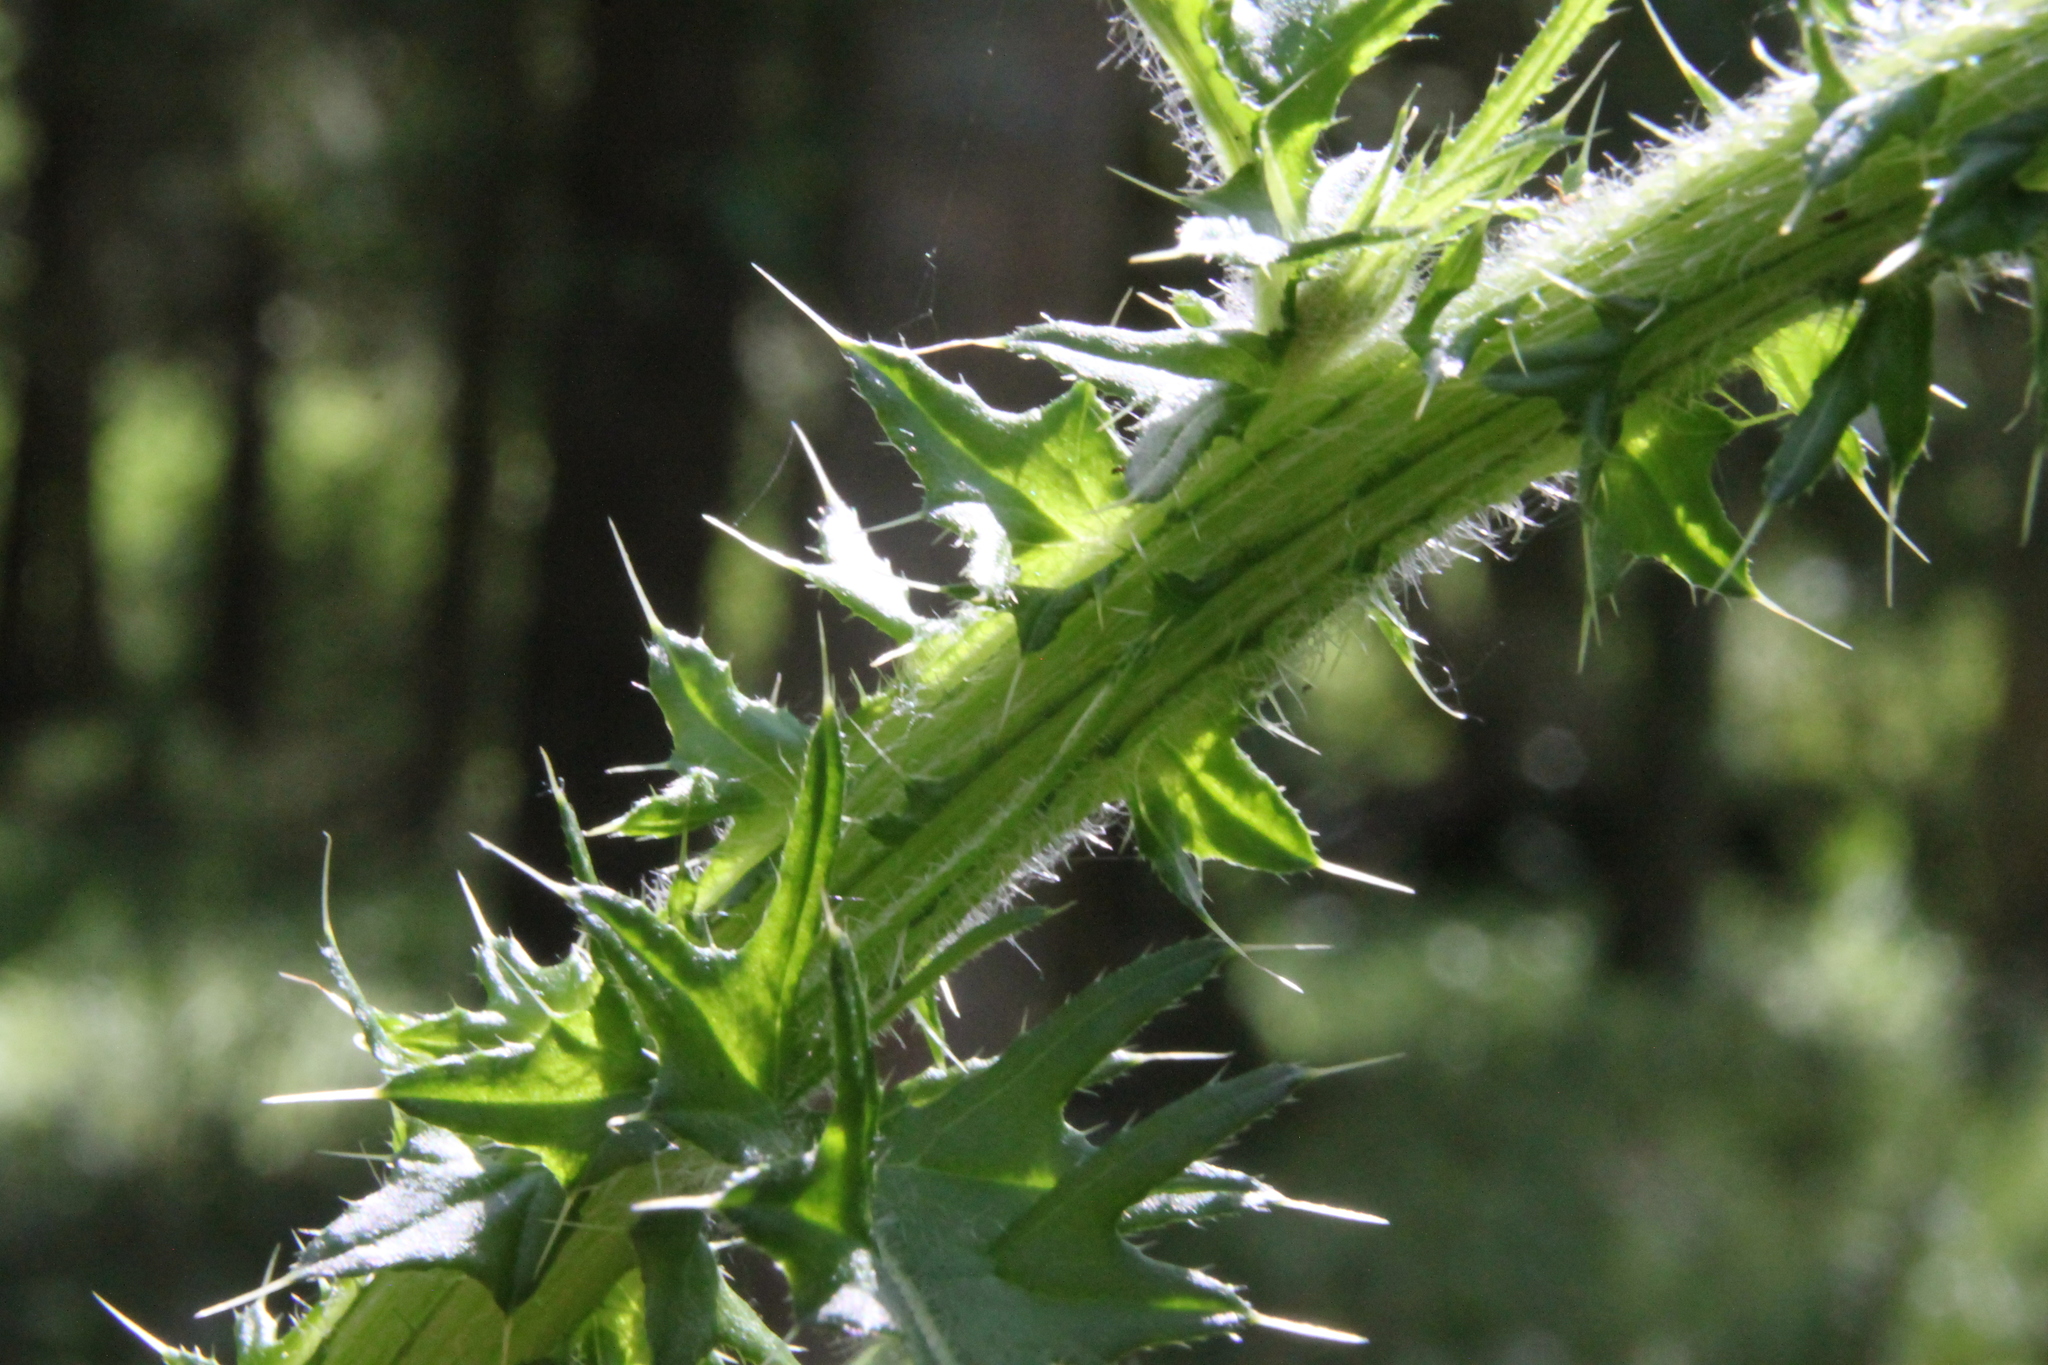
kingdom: Plantae
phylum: Tracheophyta
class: Magnoliopsida
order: Asterales
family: Asteraceae
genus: Cirsium
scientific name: Cirsium palustre
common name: Marsh thistle
